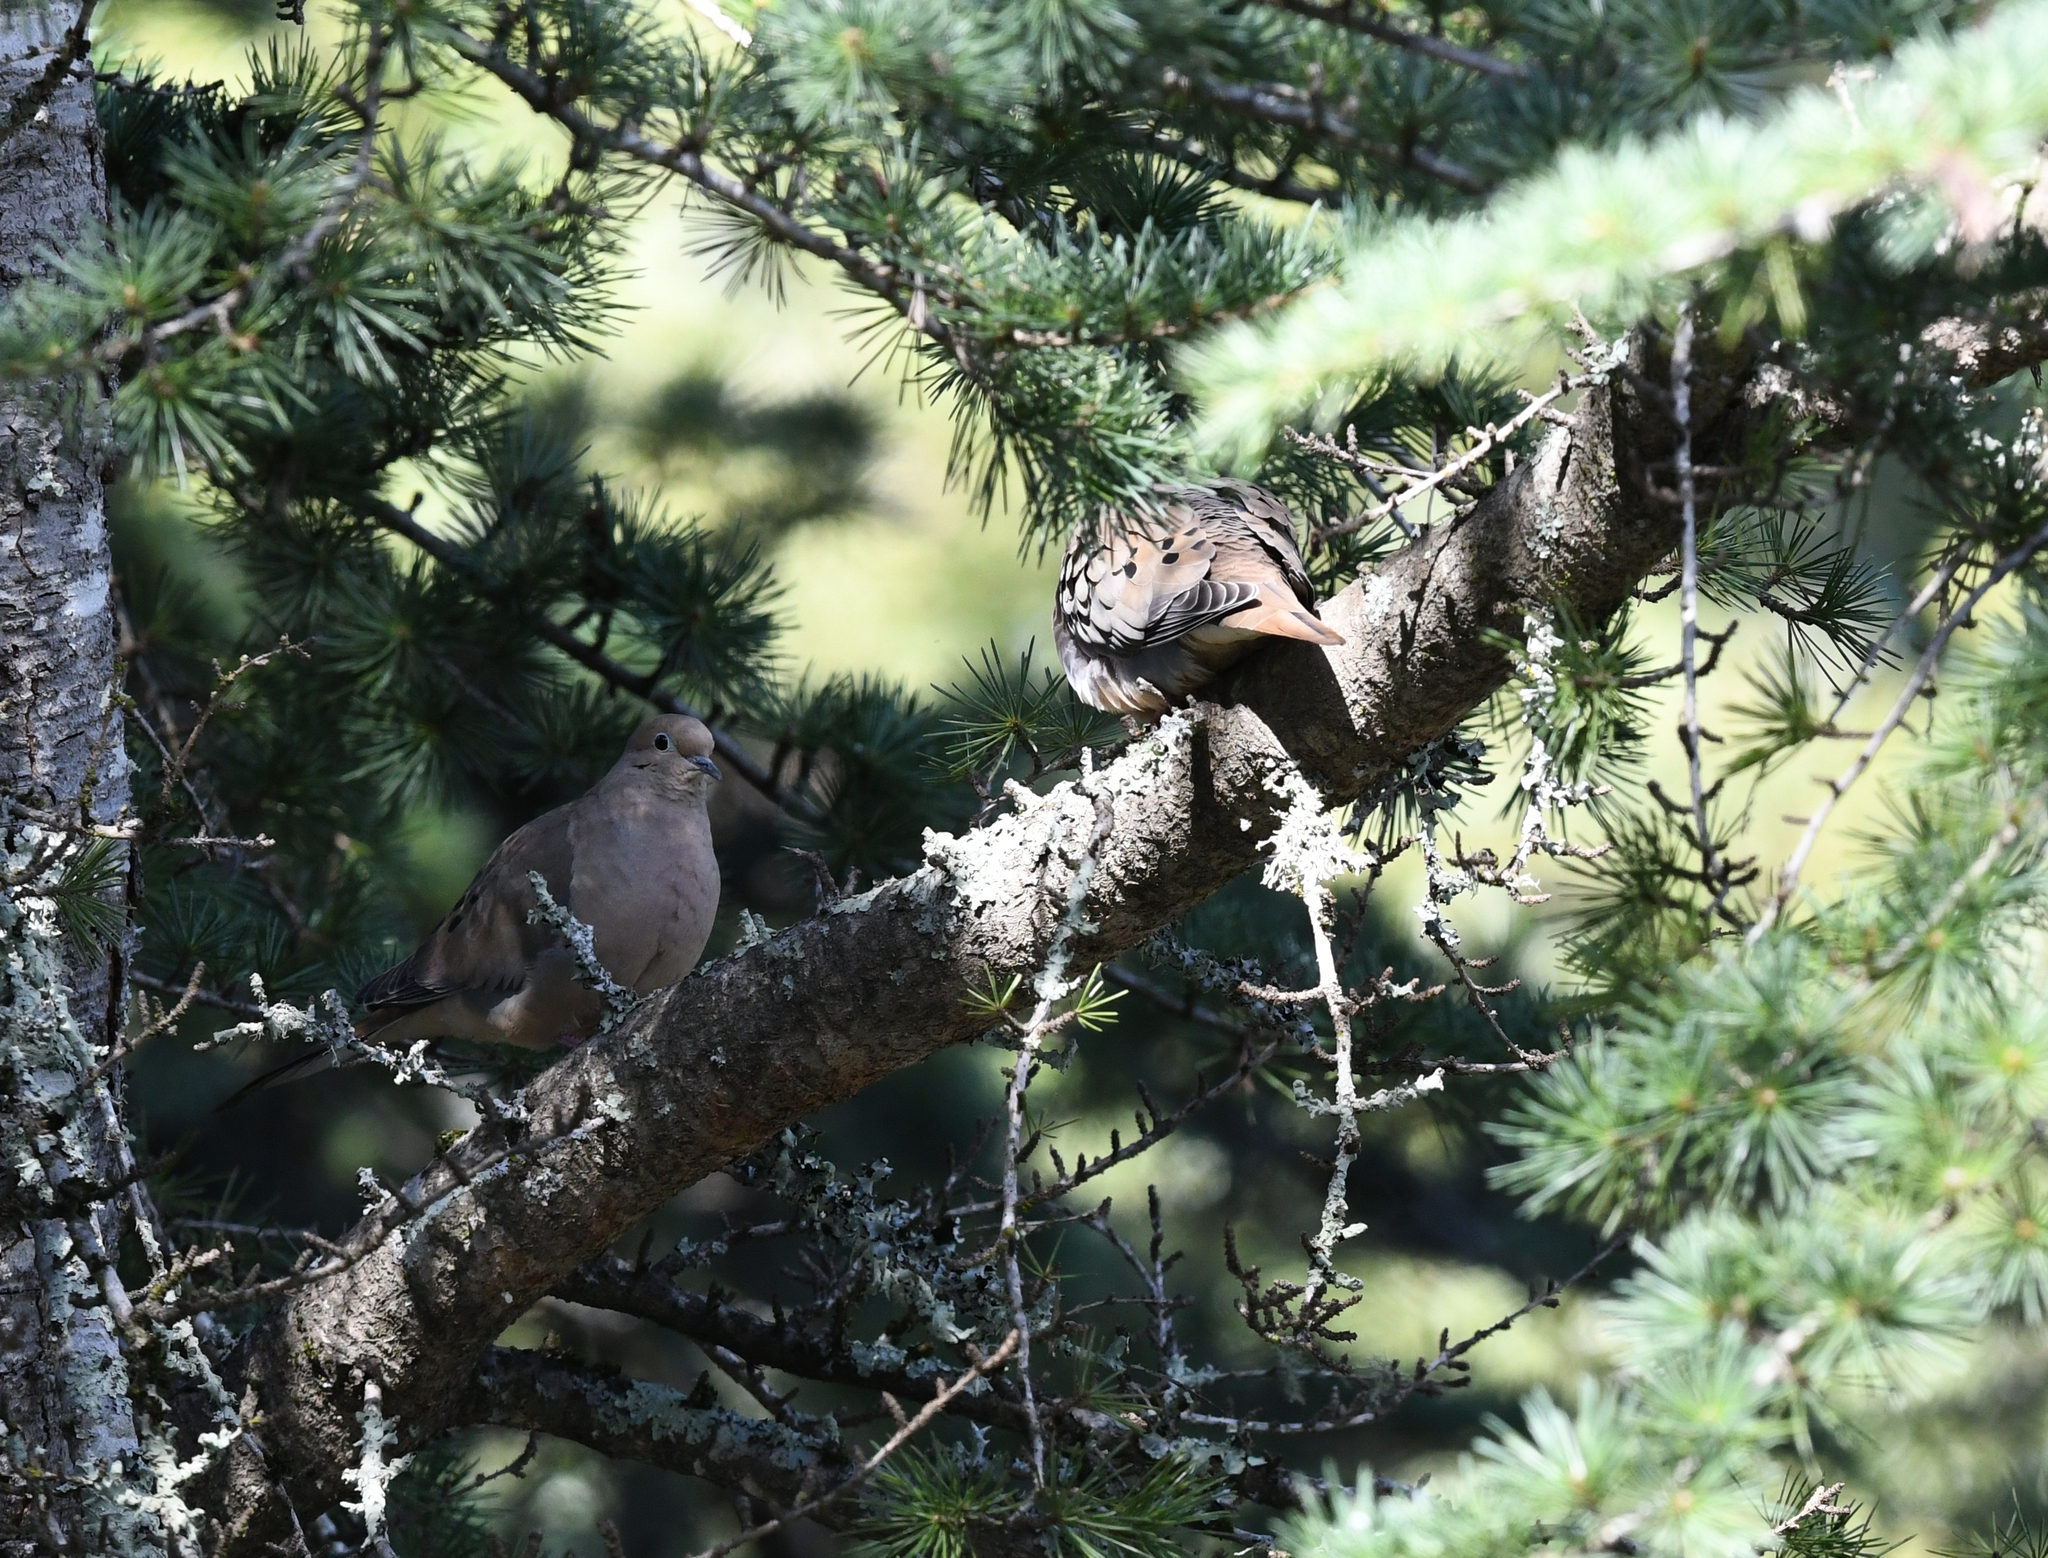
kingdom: Animalia
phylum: Chordata
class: Aves
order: Columbiformes
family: Columbidae
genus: Zenaida
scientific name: Zenaida macroura
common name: Mourning dove
